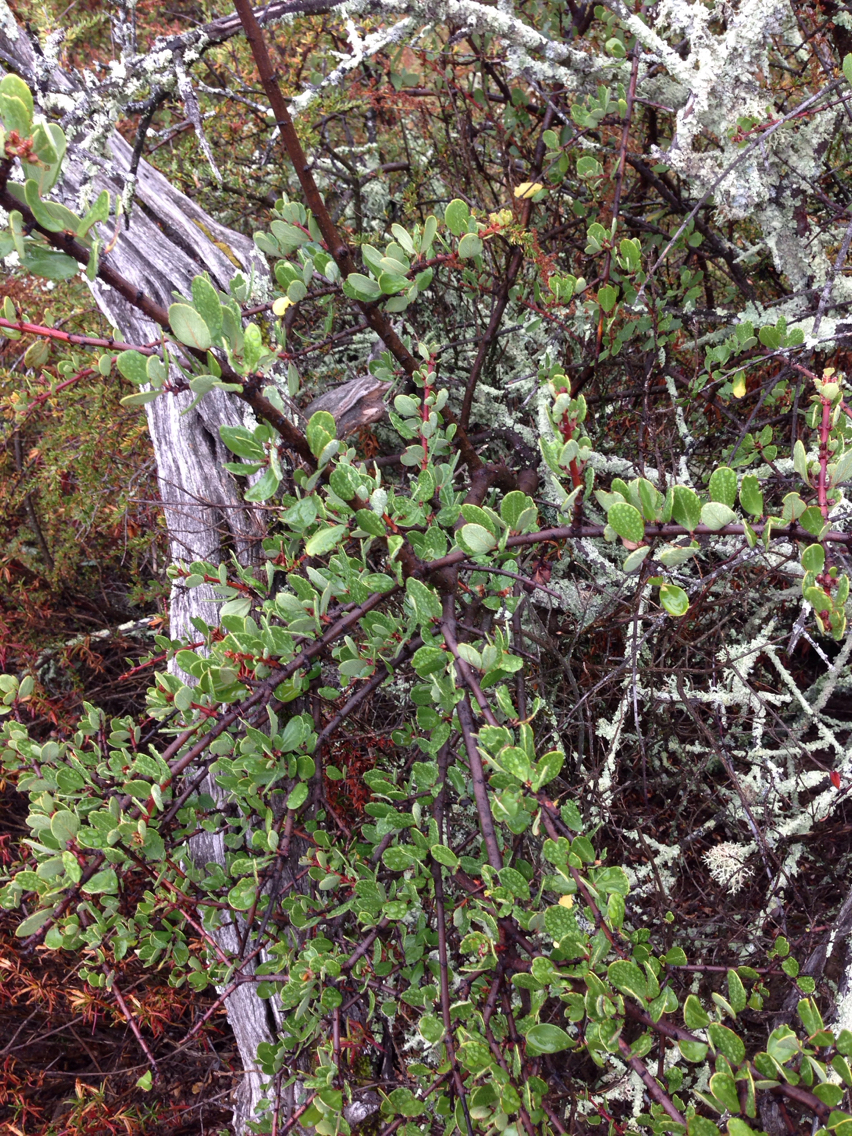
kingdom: Plantae
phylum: Tracheophyta
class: Magnoliopsida
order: Rosales
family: Rhamnaceae
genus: Ceanothus
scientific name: Ceanothus cuneatus
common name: Cuneate ceanothus
